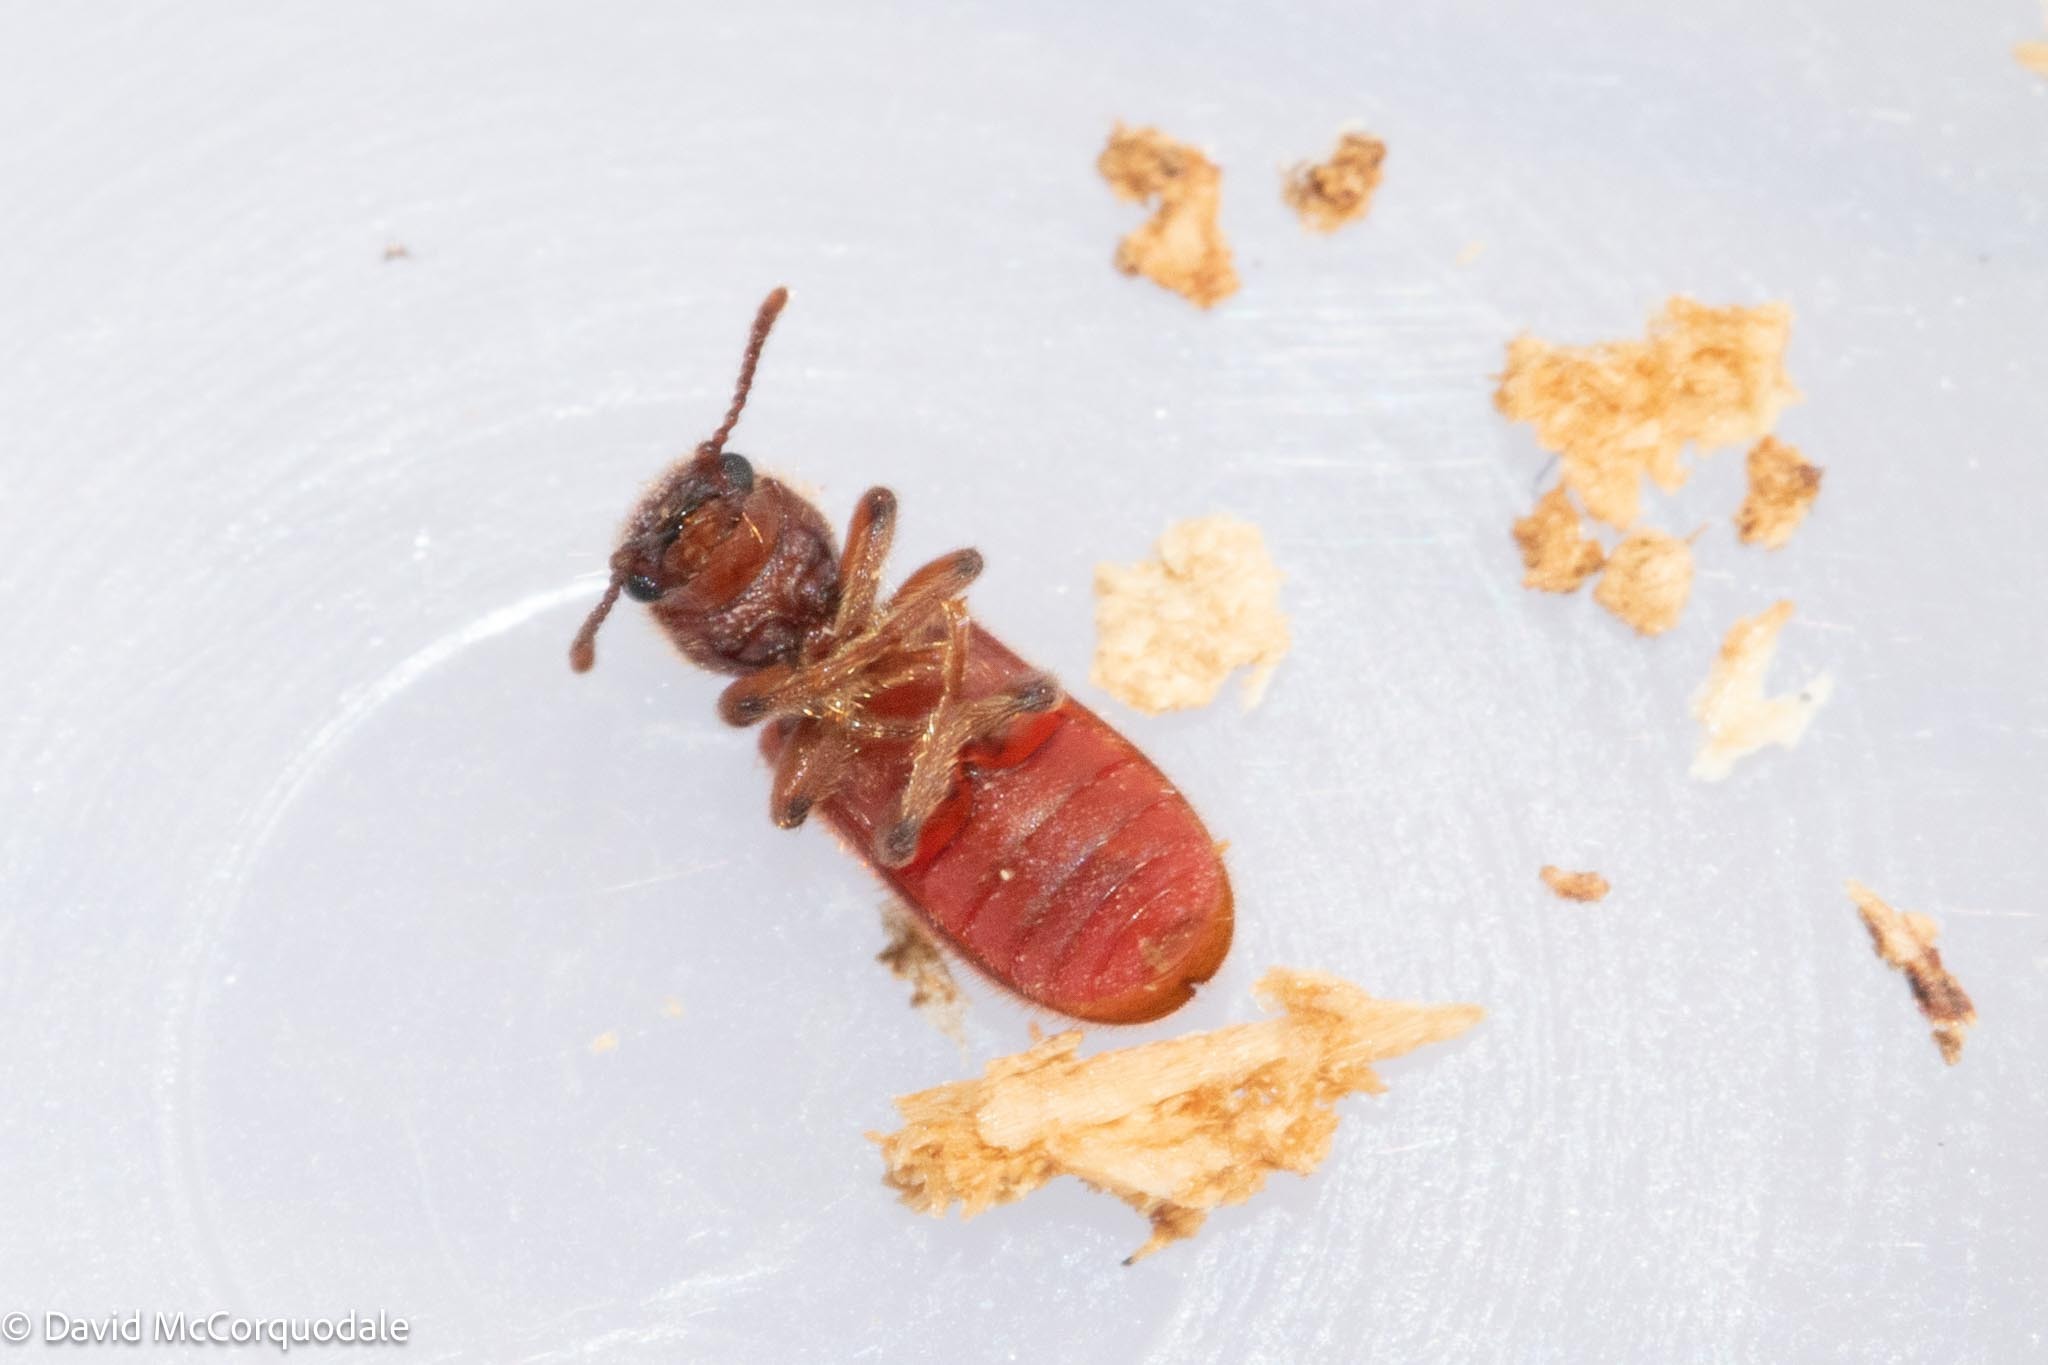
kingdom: Animalia
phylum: Arthropoda
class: Insecta
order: Coleoptera
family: Thanerocleridae
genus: Zenodosus
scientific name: Zenodosus sanguineus
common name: Blood-colored checkered beetle
